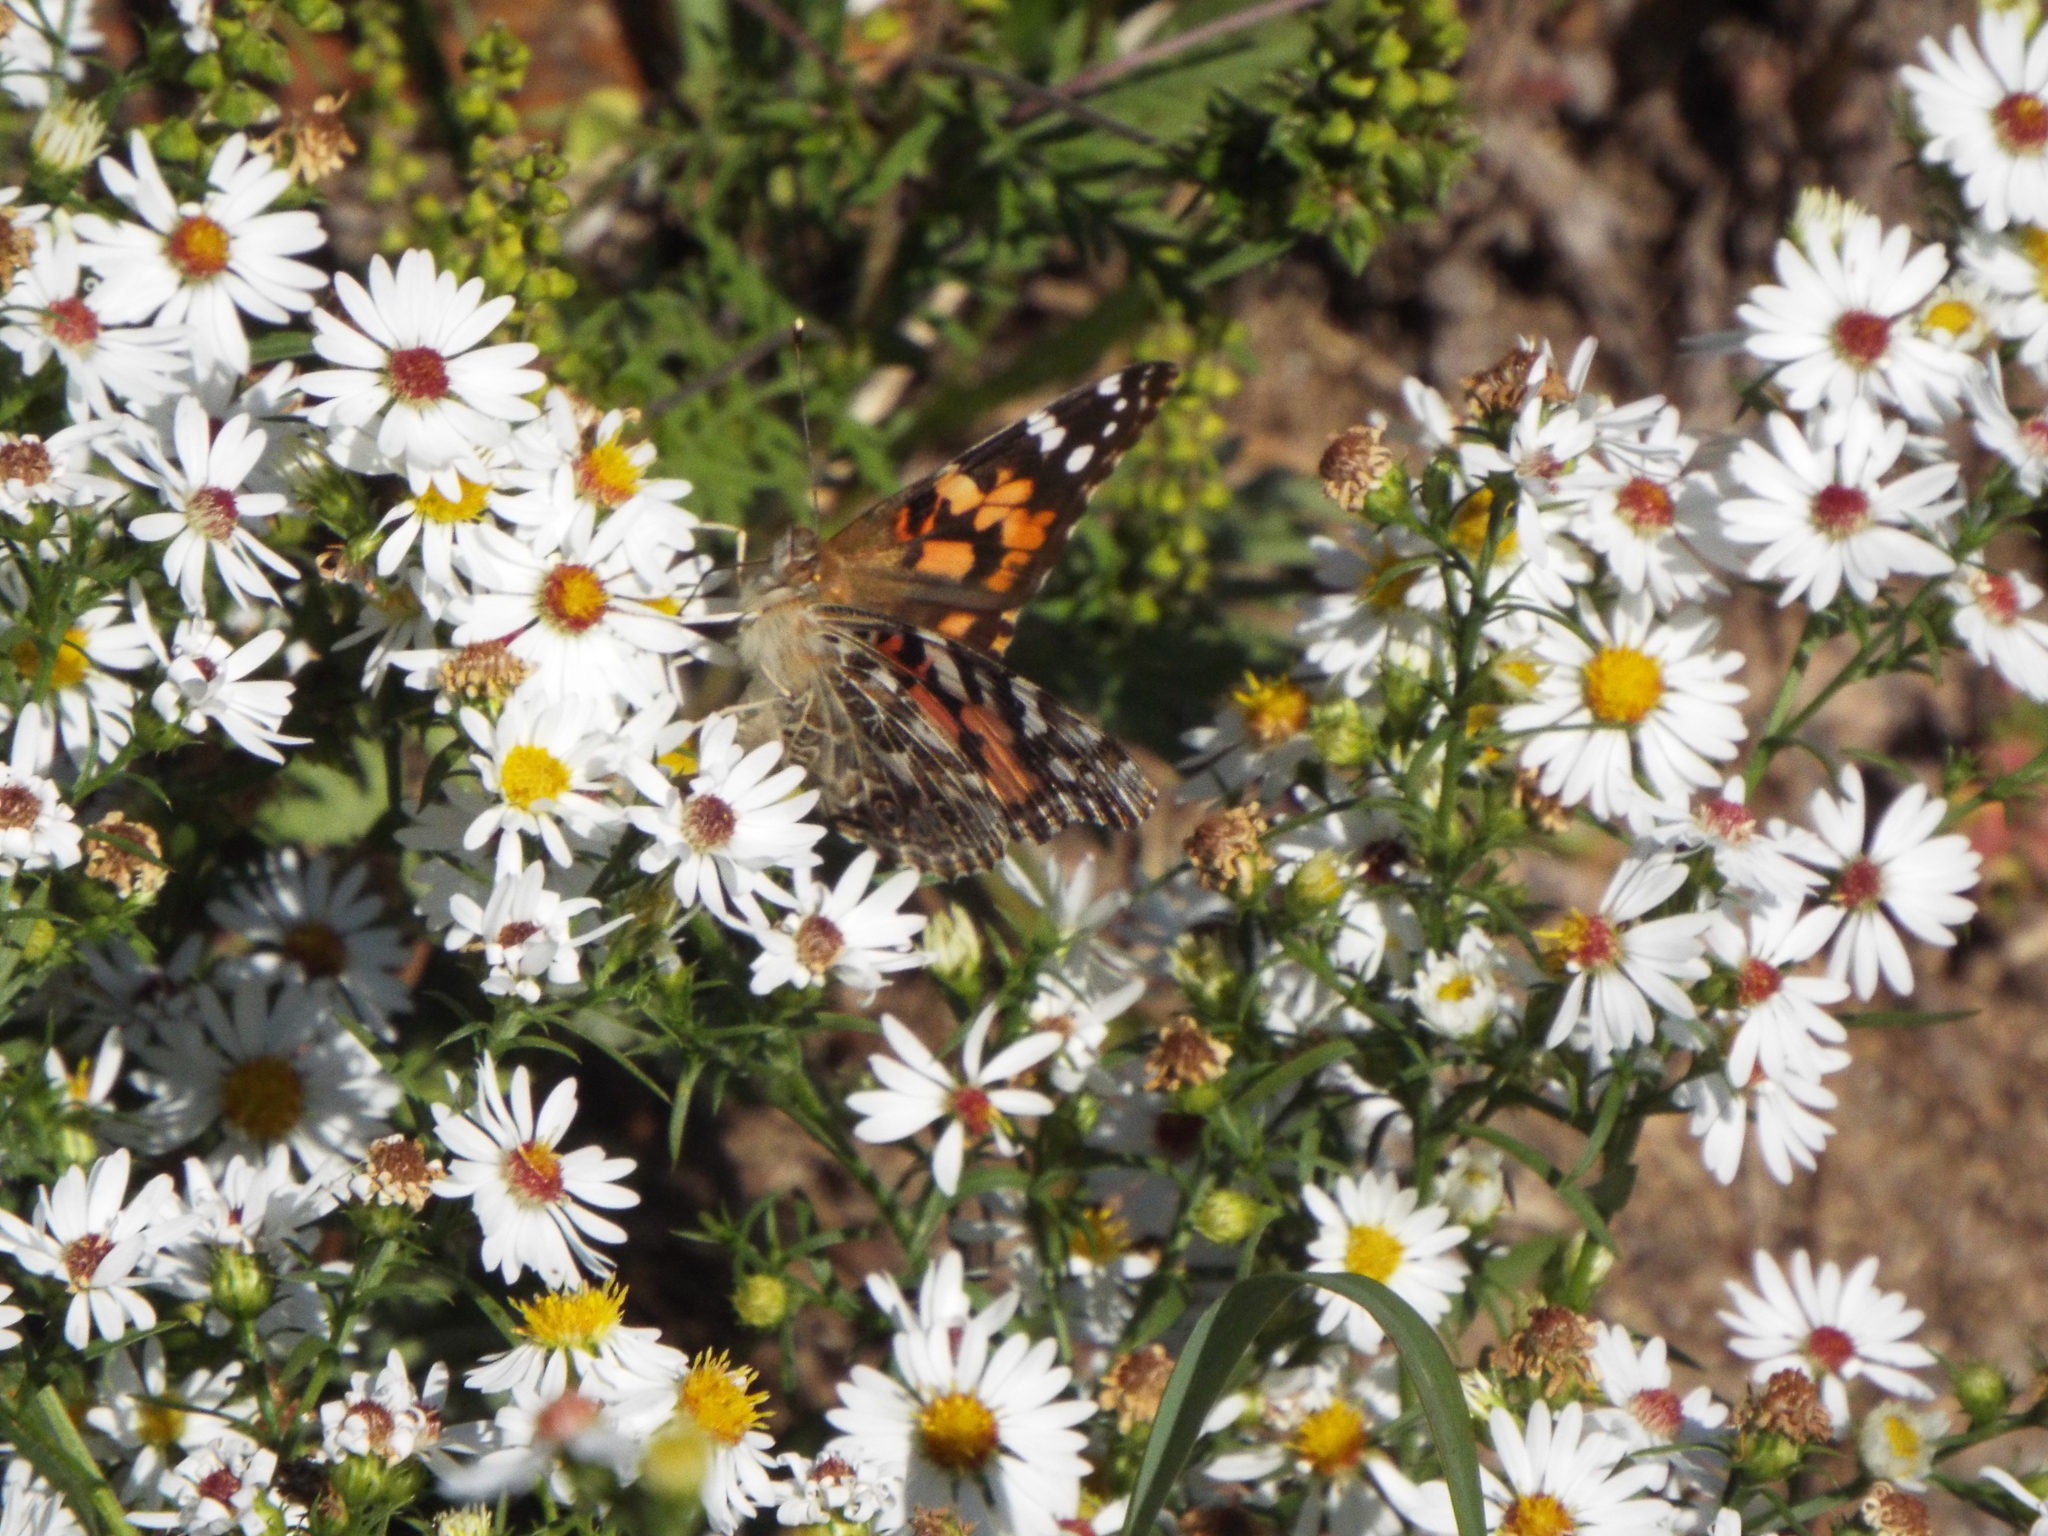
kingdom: Animalia
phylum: Arthropoda
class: Insecta
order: Lepidoptera
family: Nymphalidae
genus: Vanessa
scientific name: Vanessa cardui
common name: Painted lady
